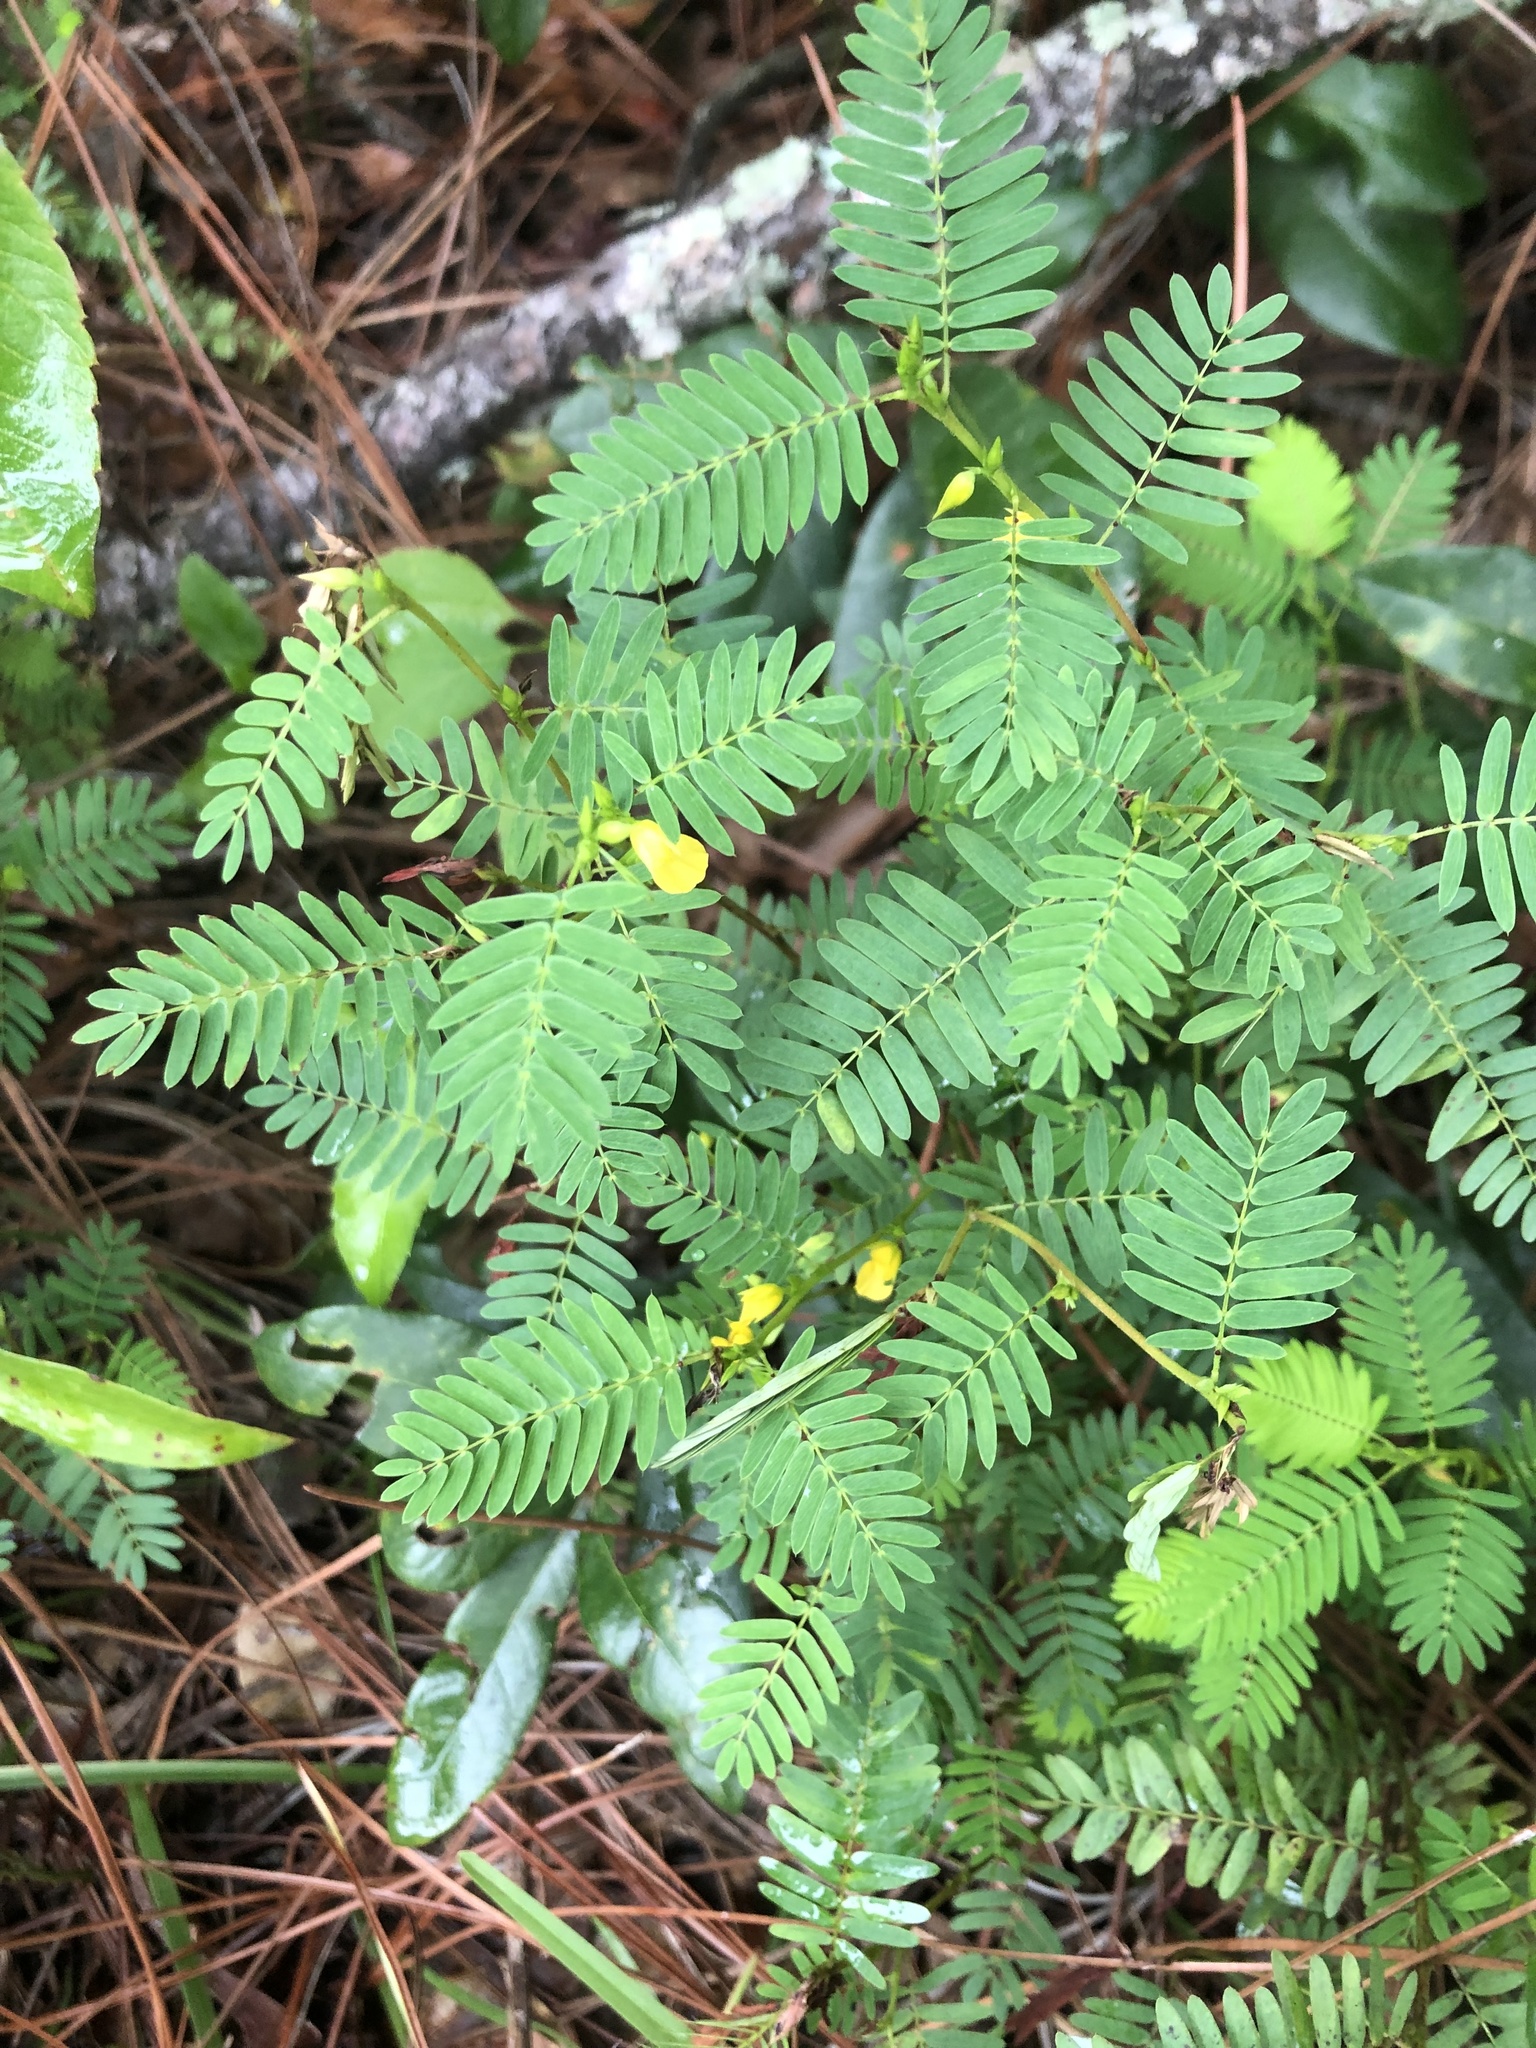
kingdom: Plantae
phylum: Tracheophyta
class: Magnoliopsida
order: Fabales
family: Fabaceae
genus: Chamaecrista
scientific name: Chamaecrista nictitans
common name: Sensitive cassia
